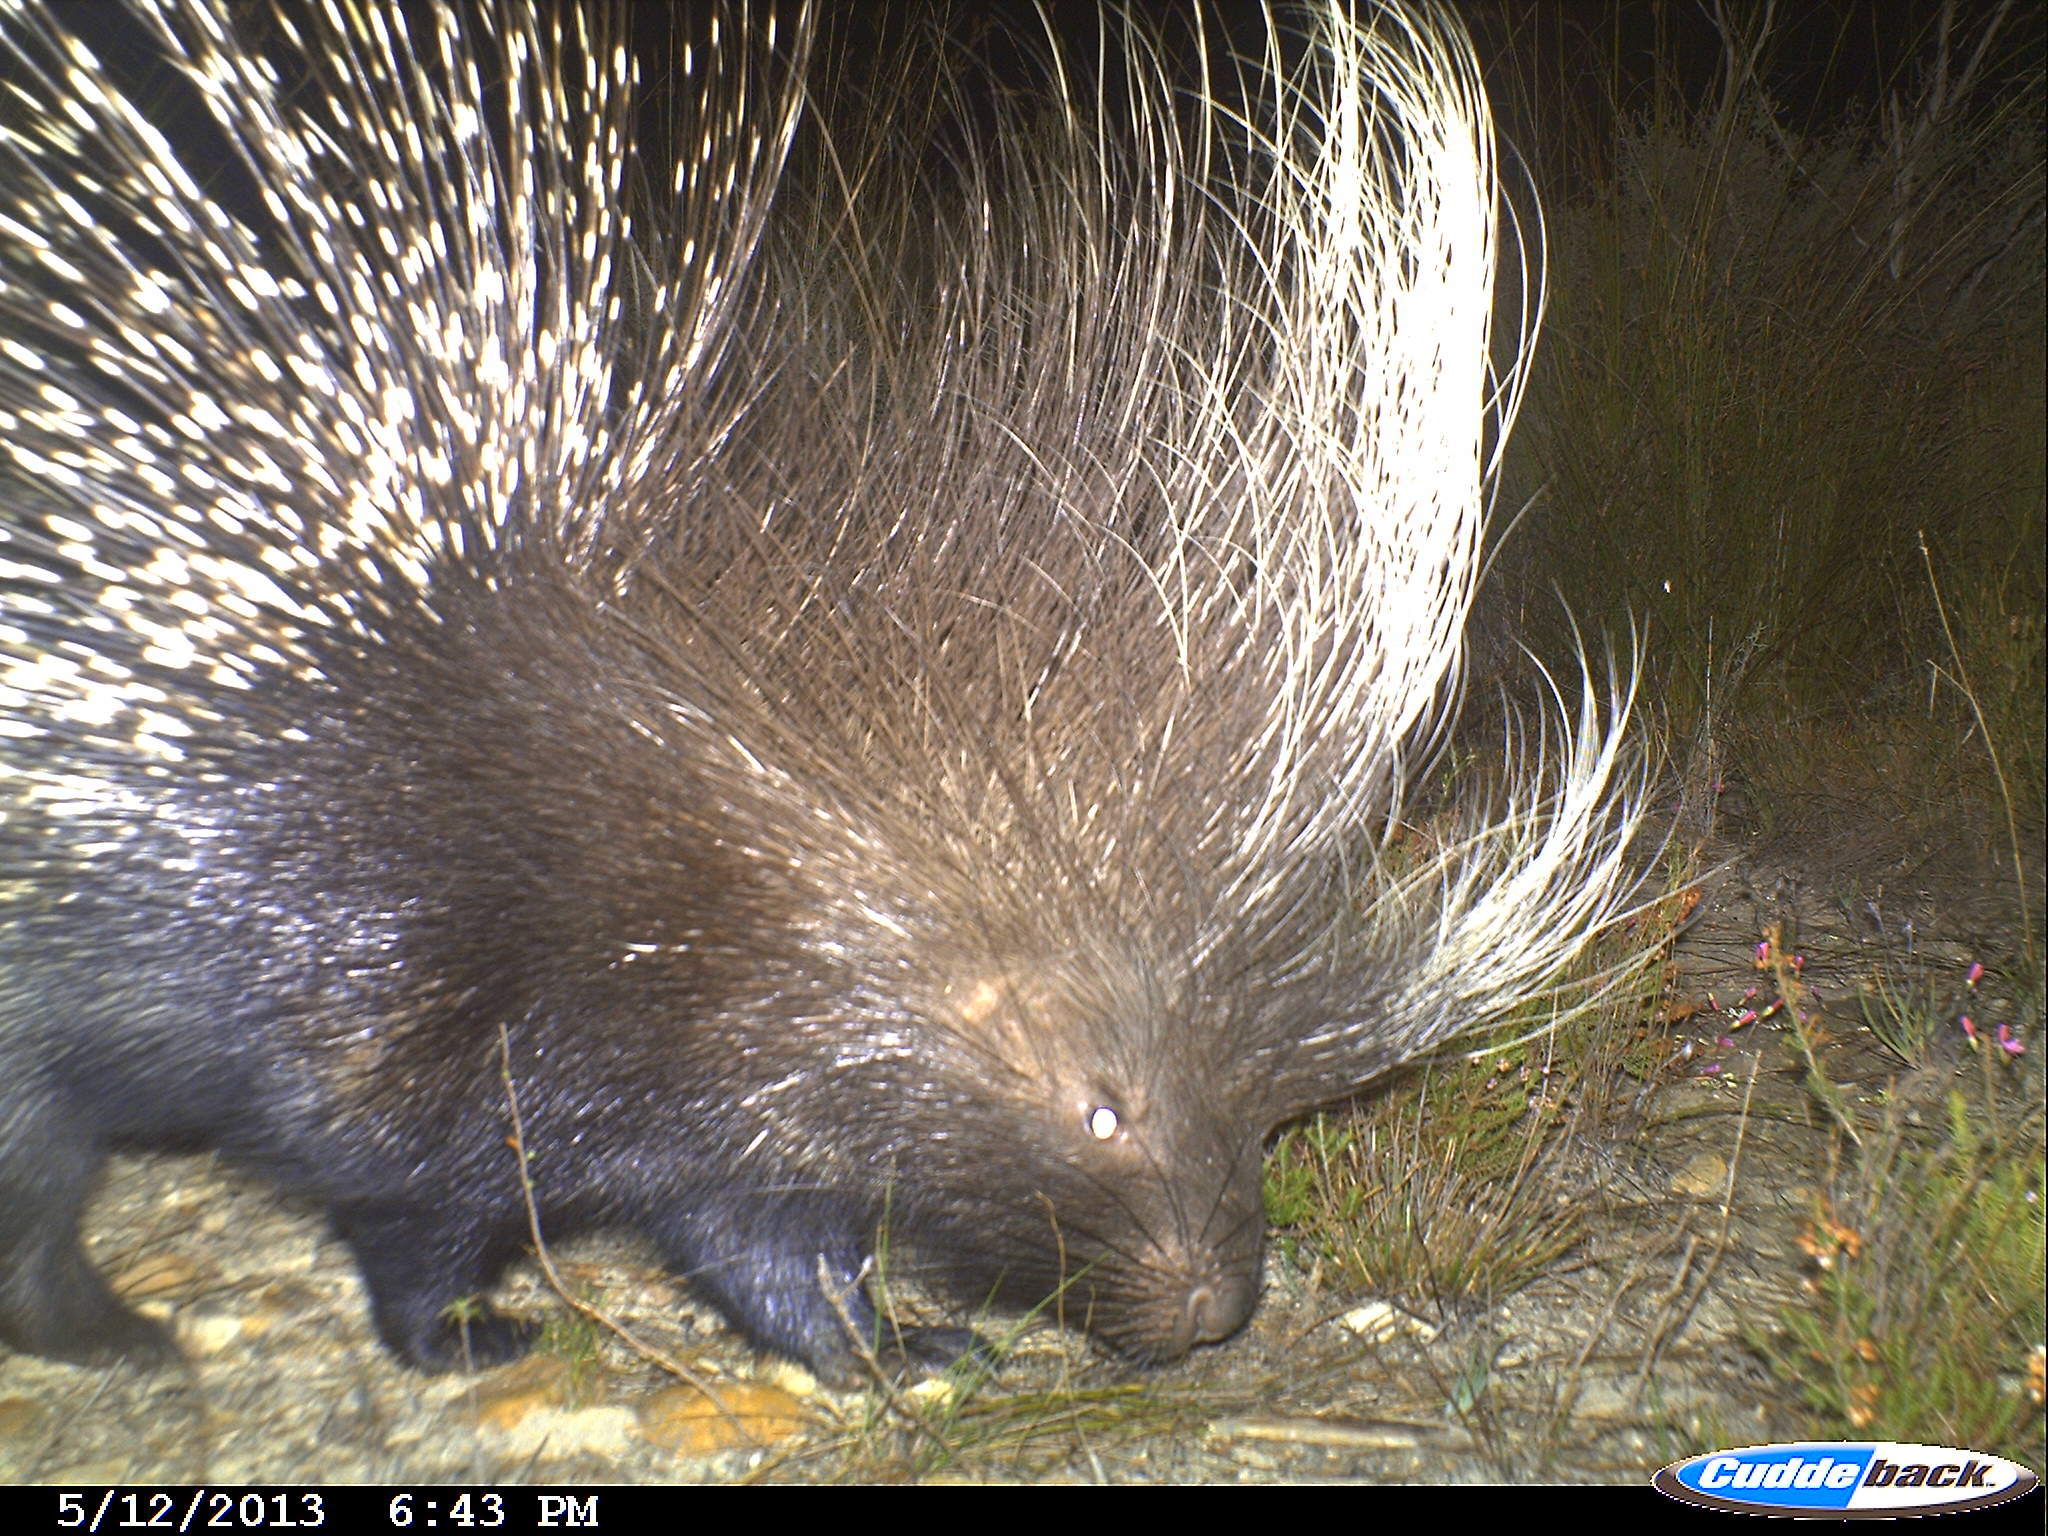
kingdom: Animalia
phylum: Chordata
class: Mammalia
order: Rodentia
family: Hystricidae
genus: Hystrix
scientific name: Hystrix africaeaustralis
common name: Cape porcupine
